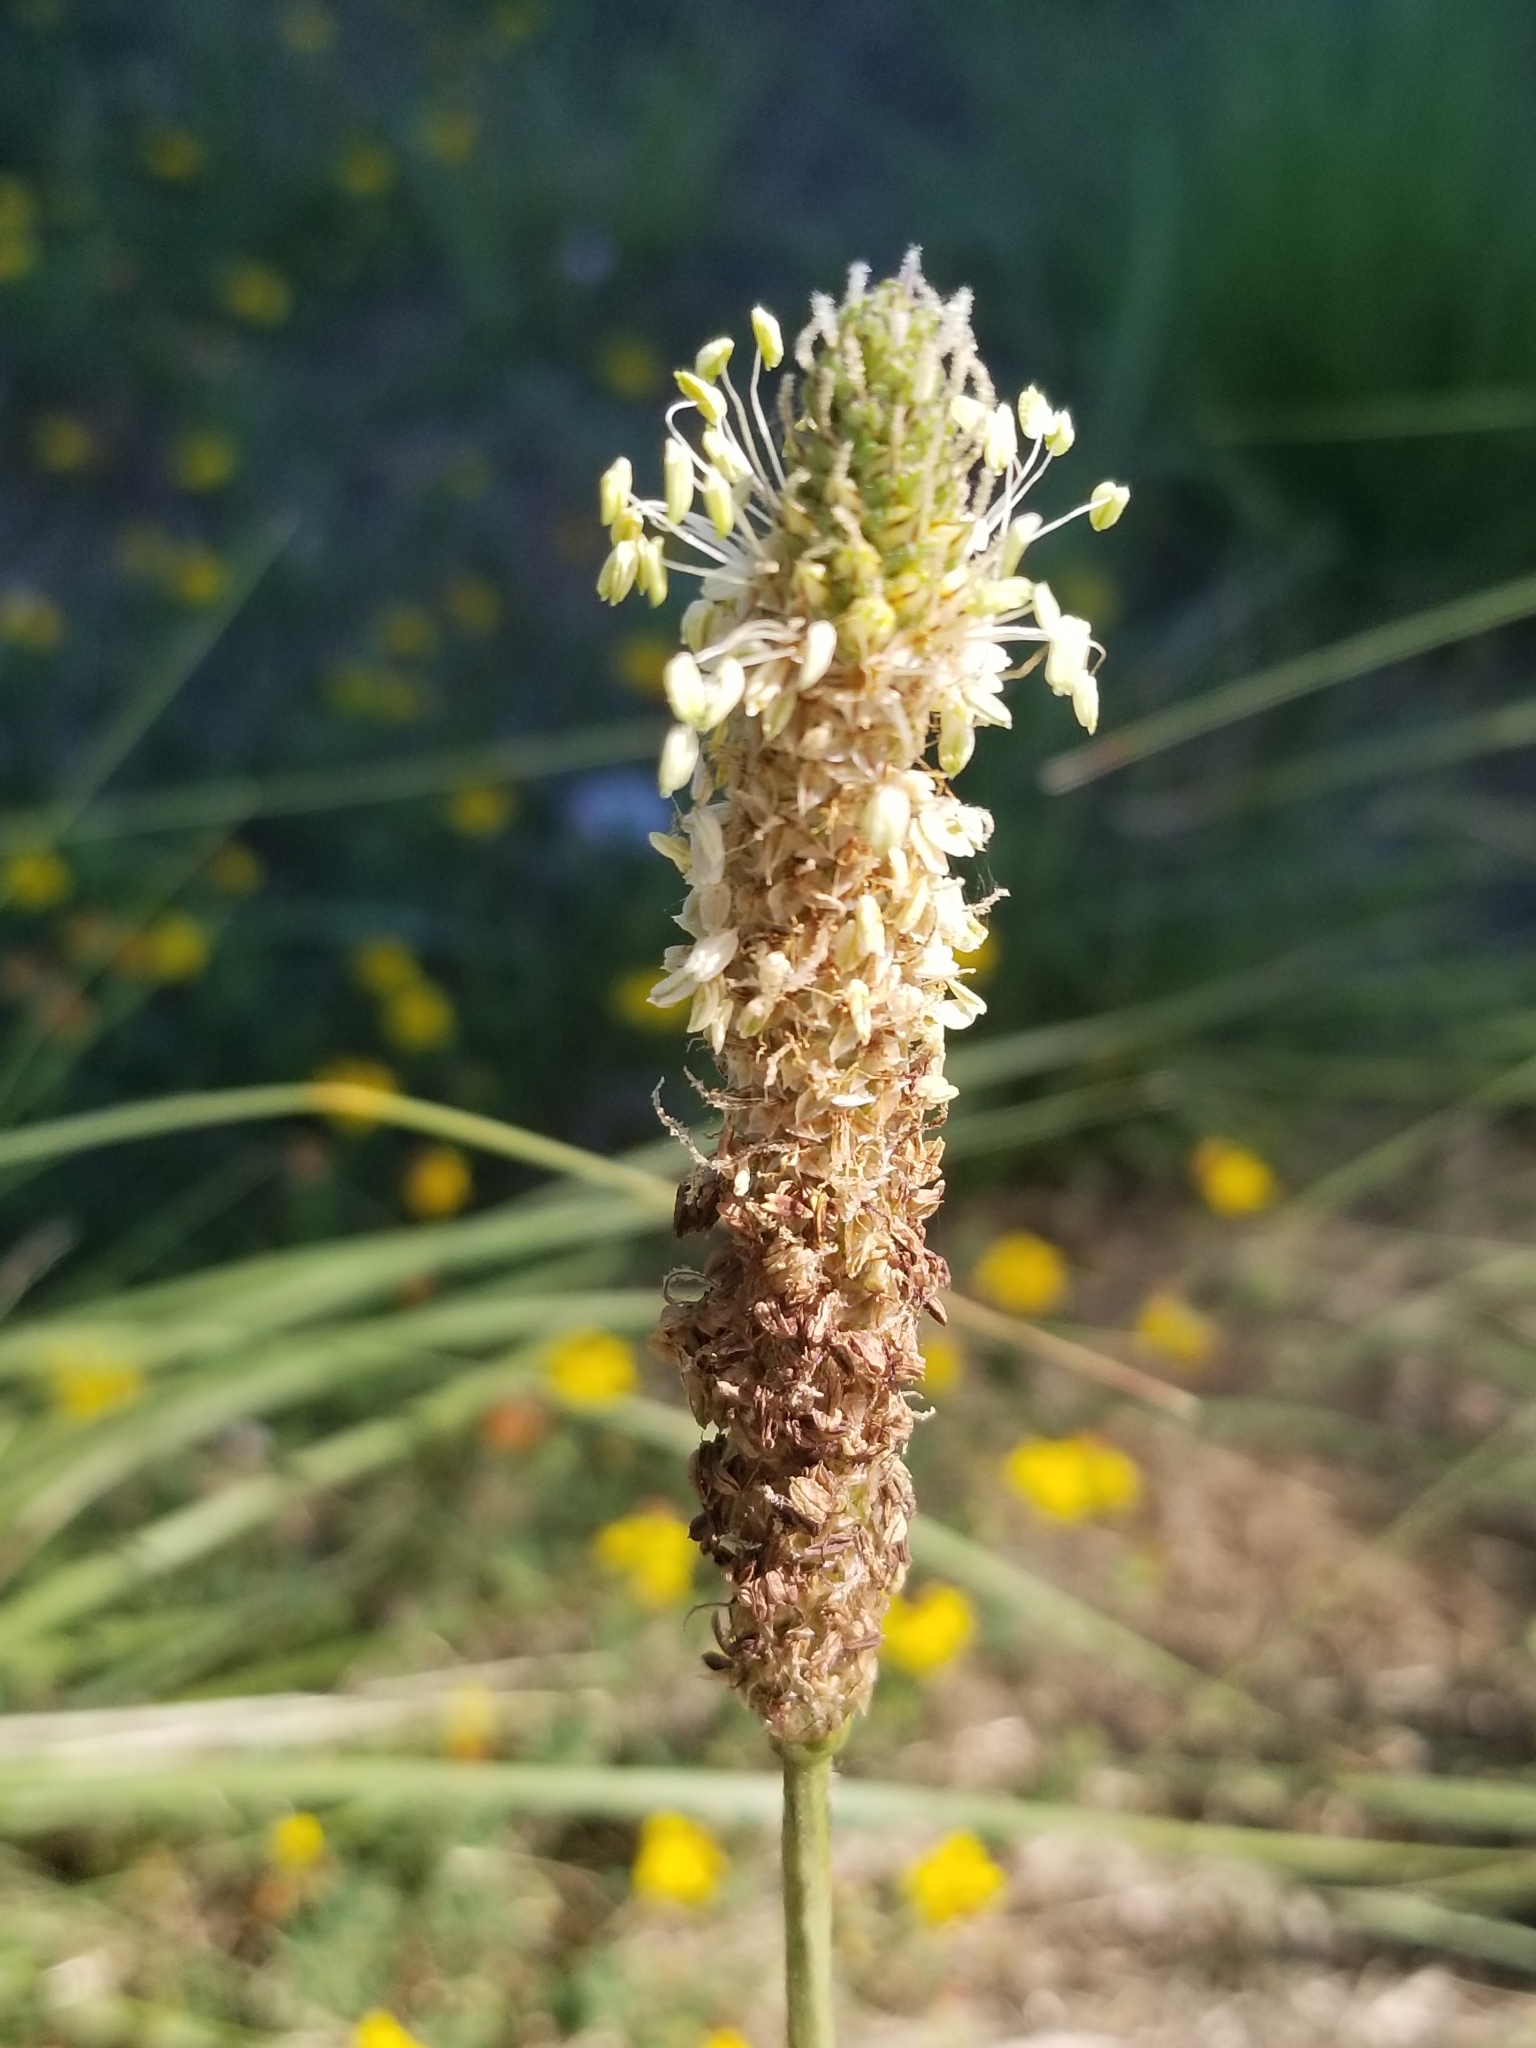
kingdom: Plantae
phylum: Tracheophyta
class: Magnoliopsida
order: Lamiales
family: Plantaginaceae
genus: Plantago
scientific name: Plantago lanceolata
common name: Ribwort plantain
